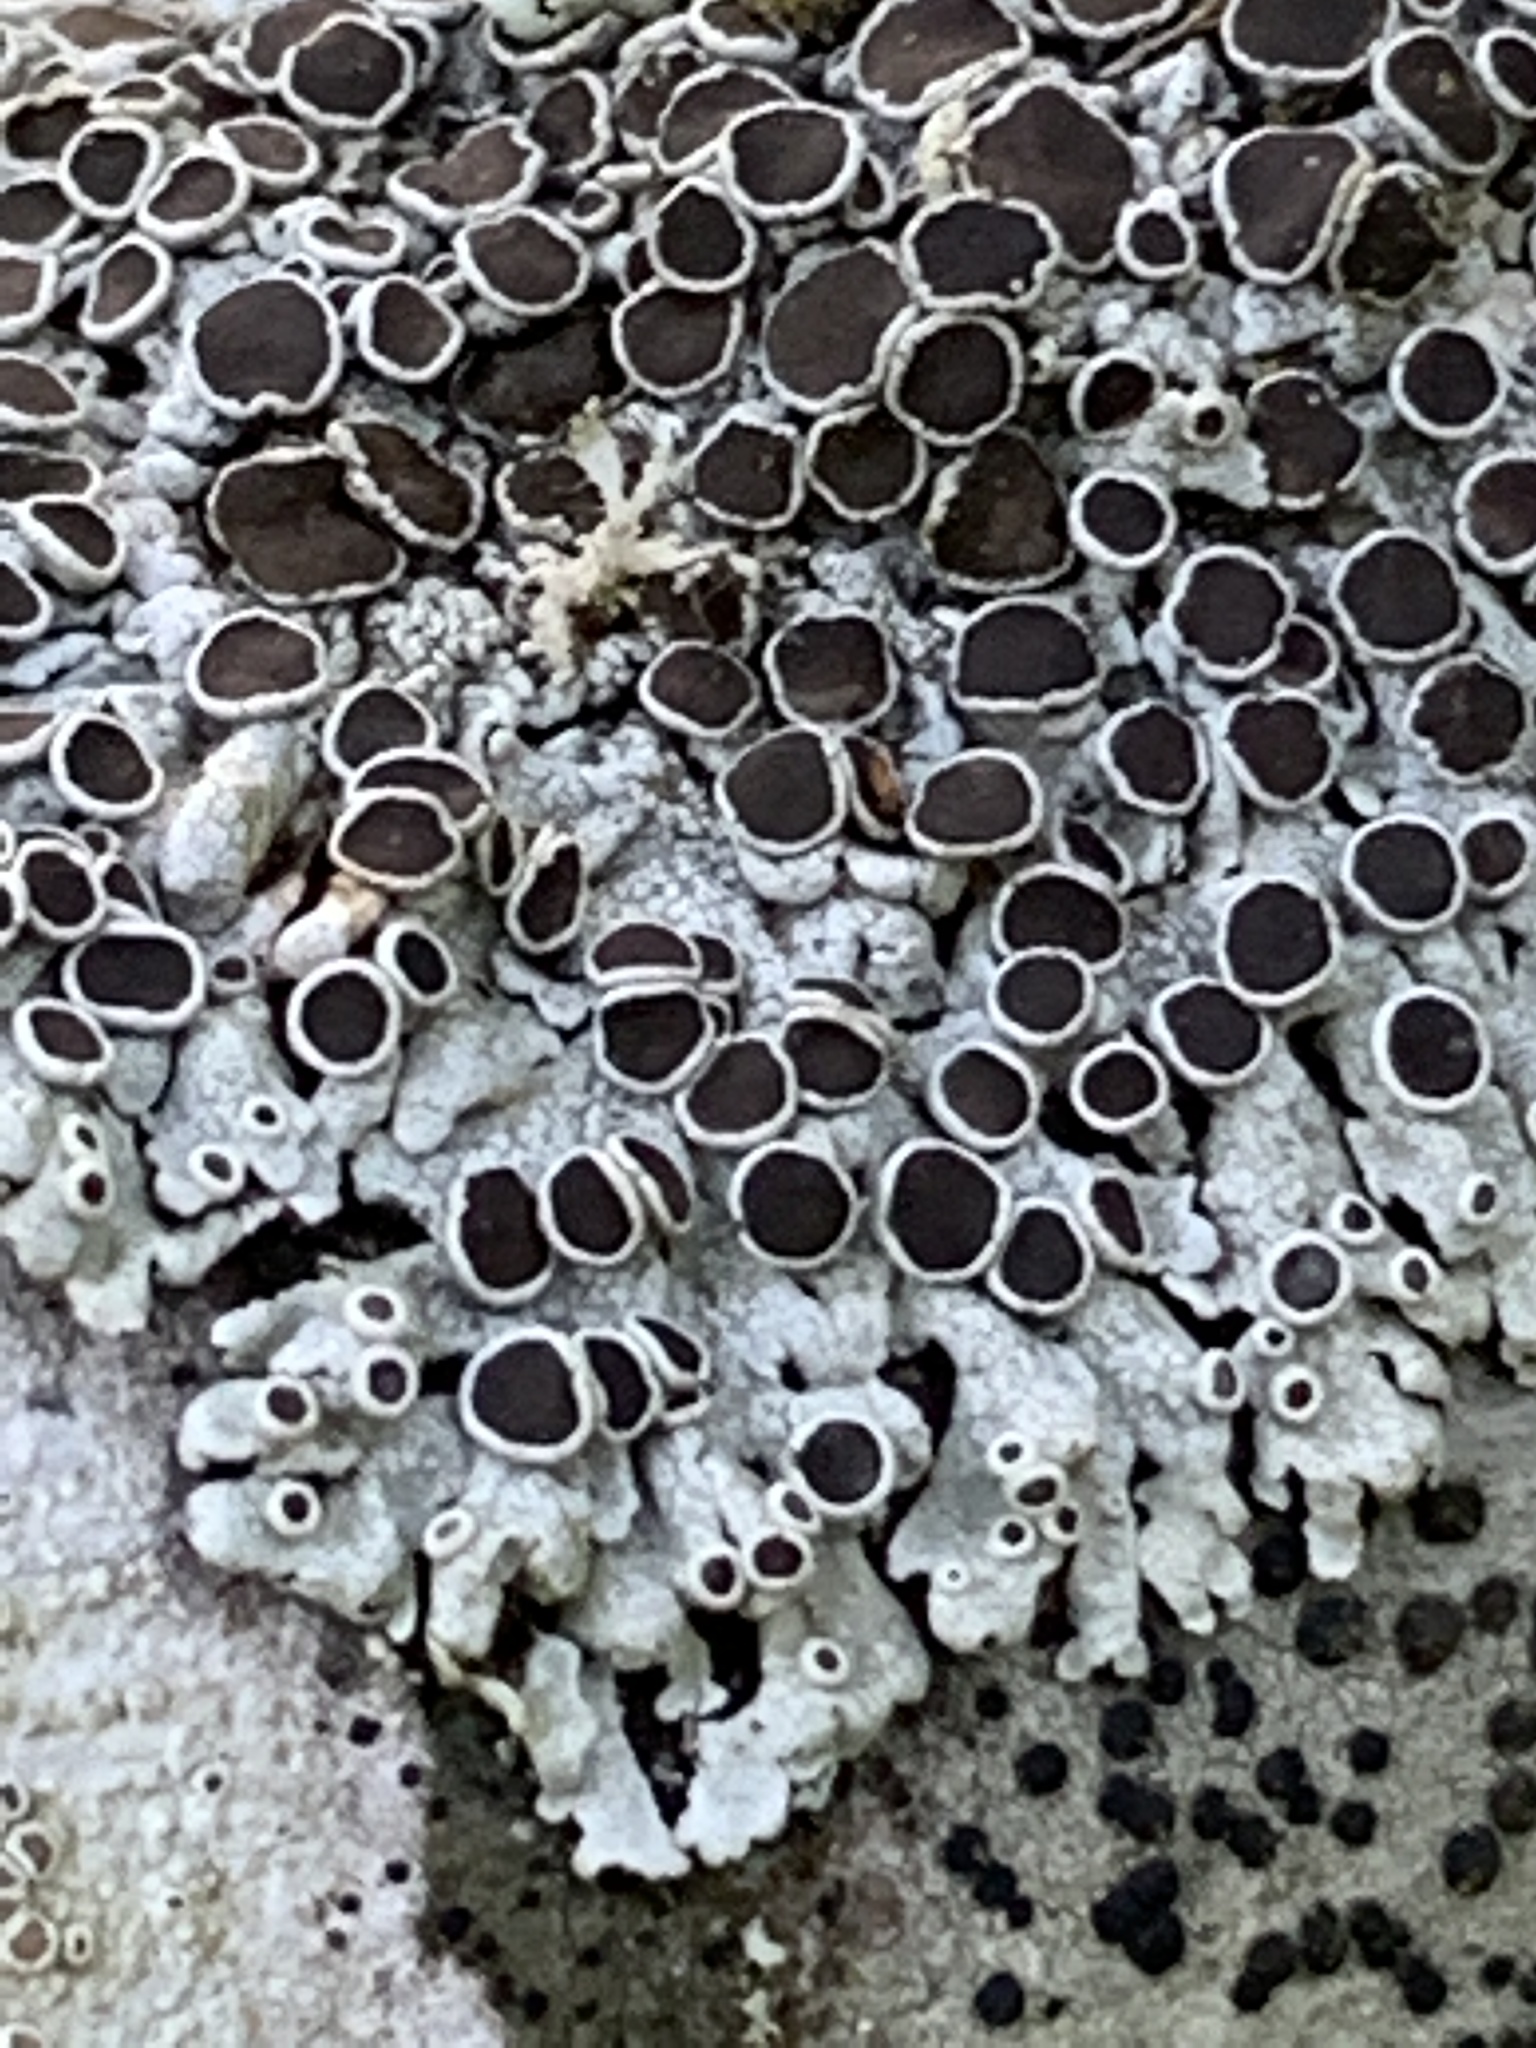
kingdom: Fungi
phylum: Ascomycota
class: Lecanoromycetes
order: Caliciales
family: Physciaceae
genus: Physcia
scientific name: Physcia aipolia
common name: Hoary rosette lichen
